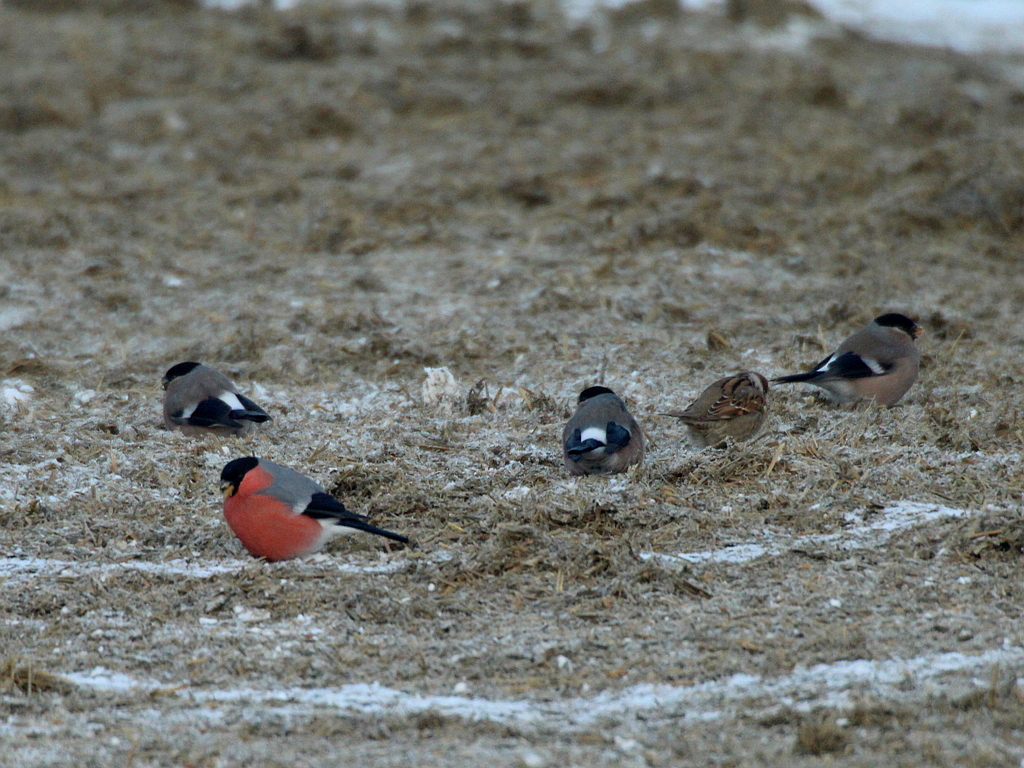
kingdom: Animalia
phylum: Chordata
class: Aves
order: Passeriformes
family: Fringillidae
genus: Pyrrhula
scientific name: Pyrrhula pyrrhula
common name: Eurasian bullfinch
